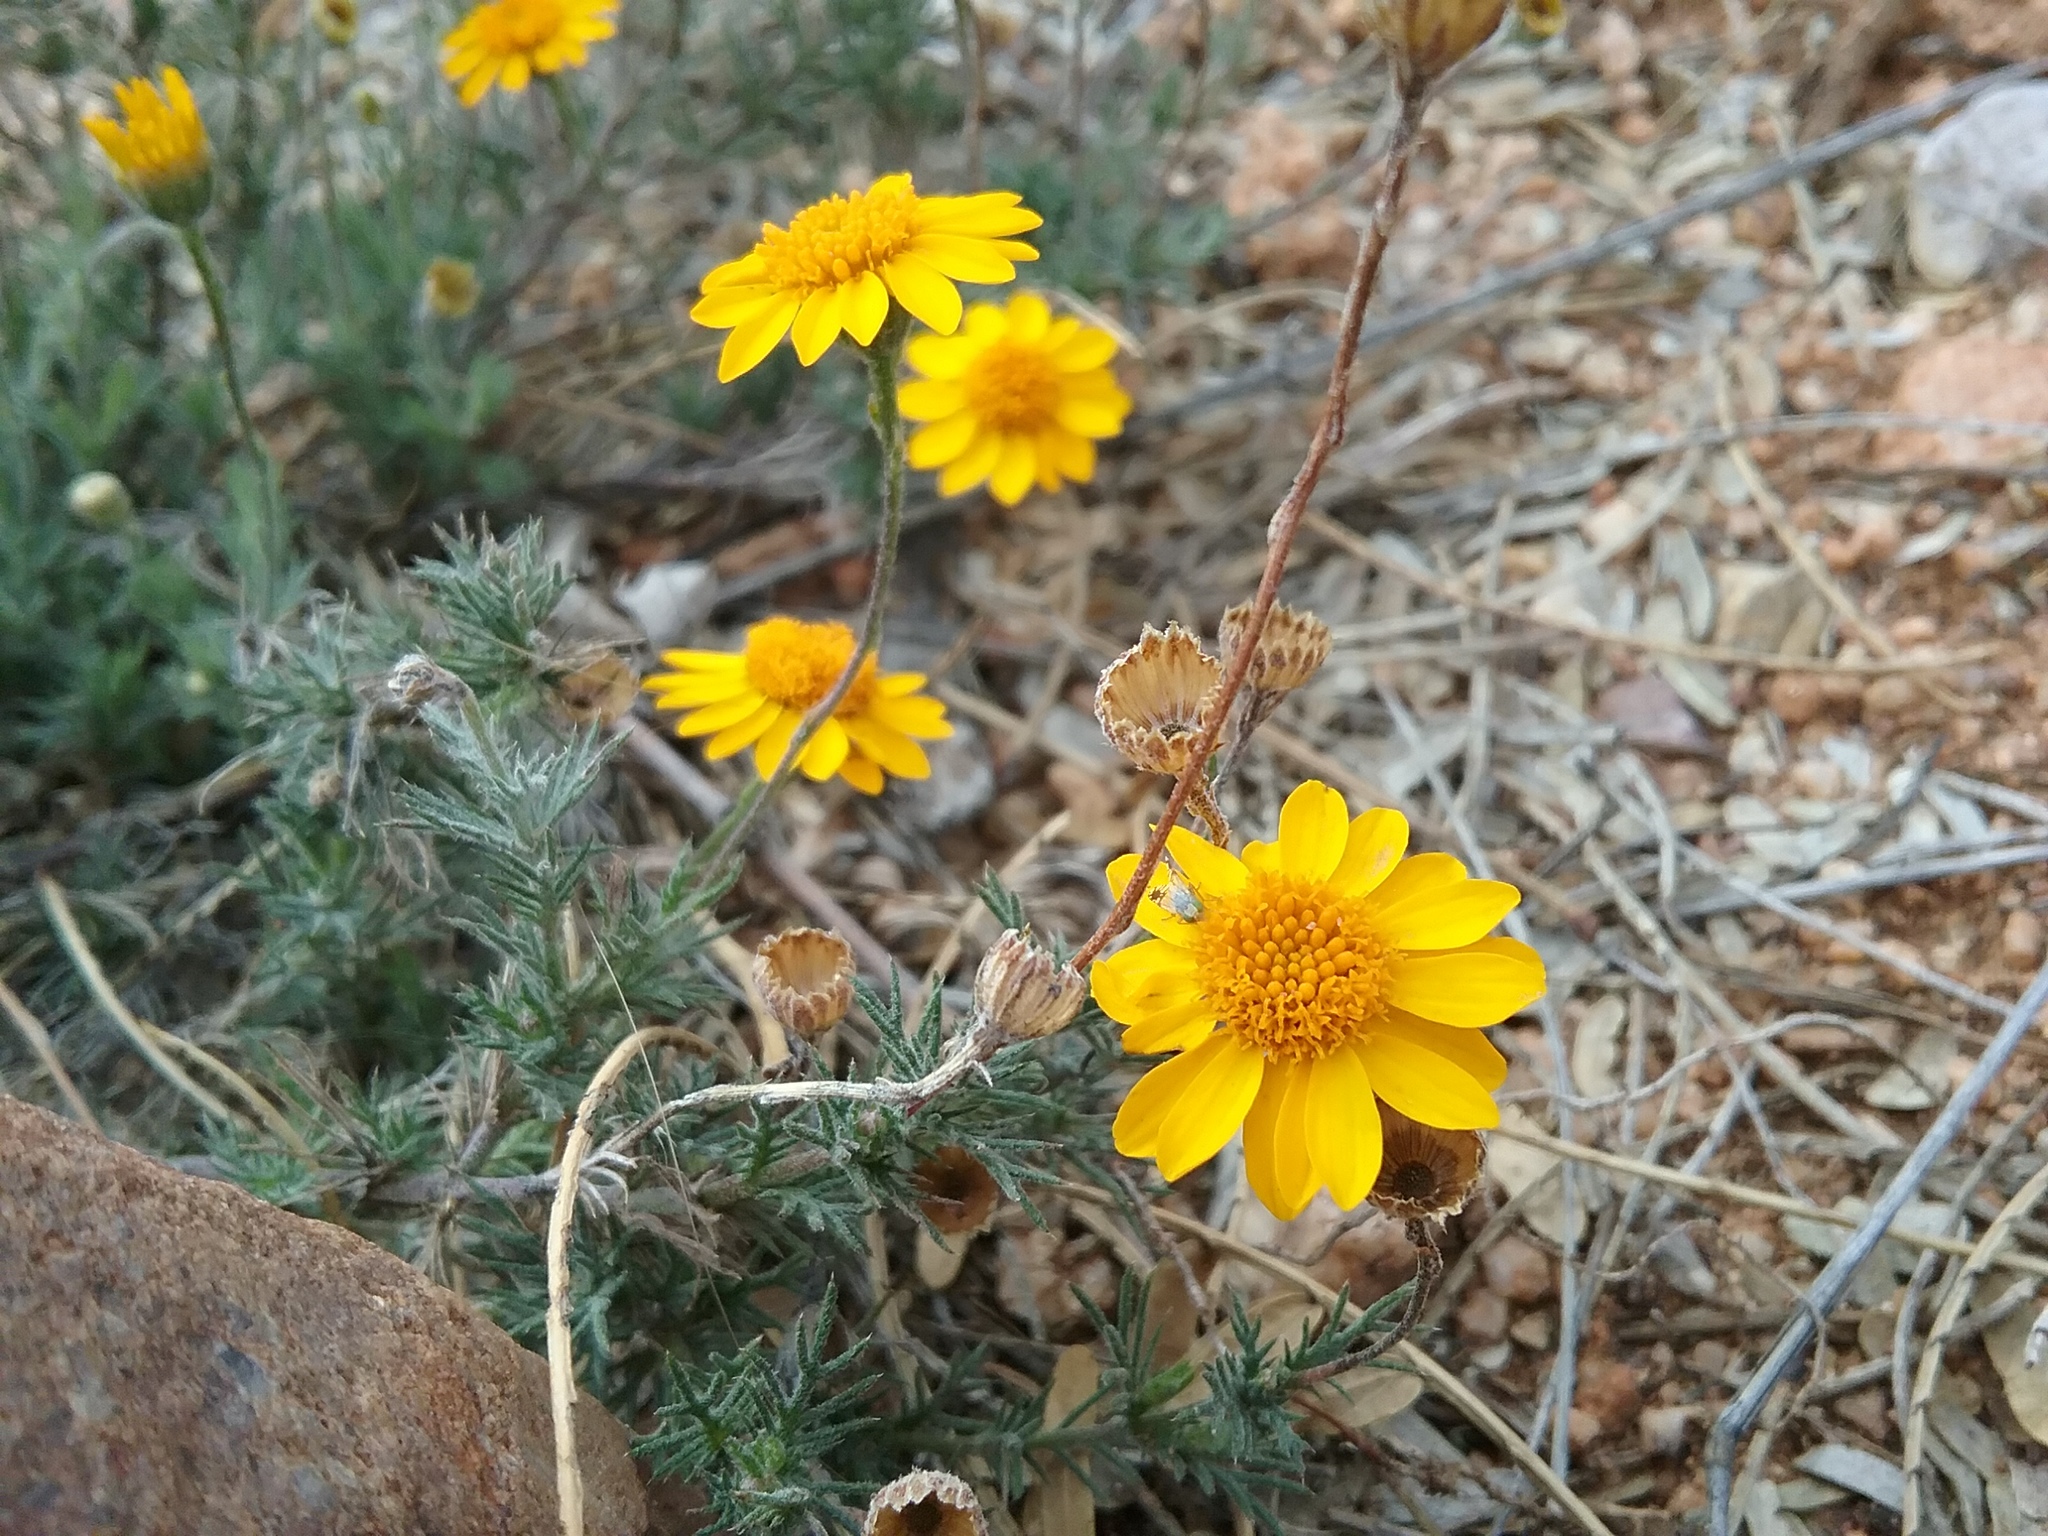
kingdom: Plantae
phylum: Tracheophyta
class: Magnoliopsida
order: Asterales
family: Asteraceae
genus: Thymophylla
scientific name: Thymophylla pentachaeta
